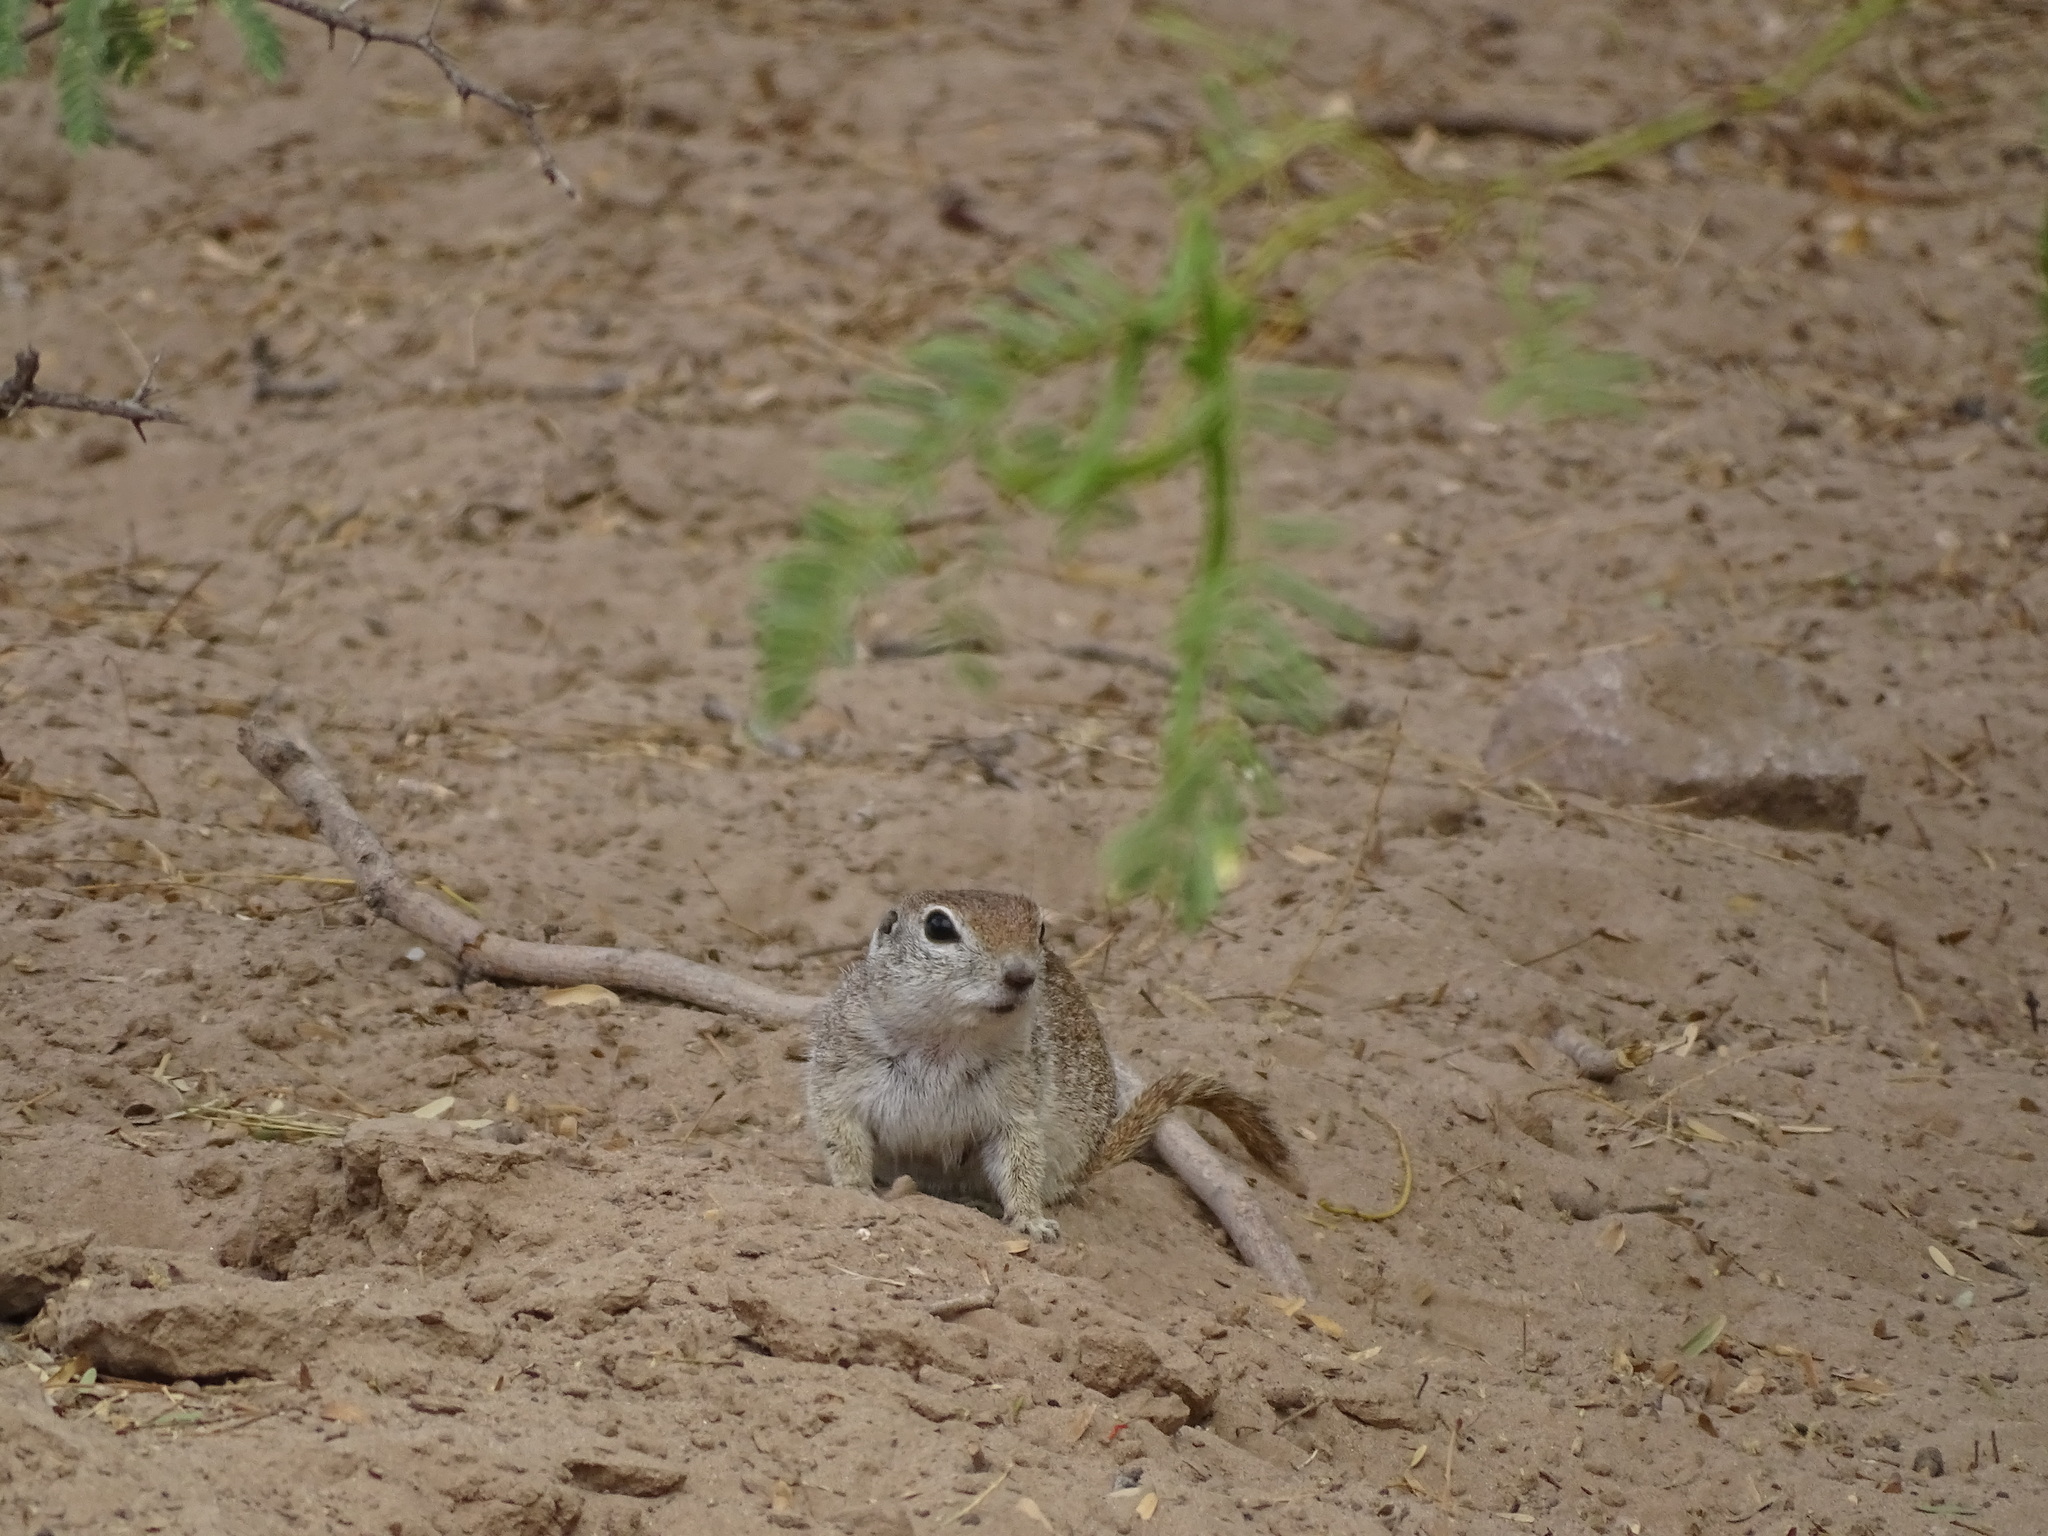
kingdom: Animalia
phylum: Chordata
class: Mammalia
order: Rodentia
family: Sciuridae
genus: Xerospermophilus
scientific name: Xerospermophilus tereticaudus
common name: Round-tailed ground squirrel
